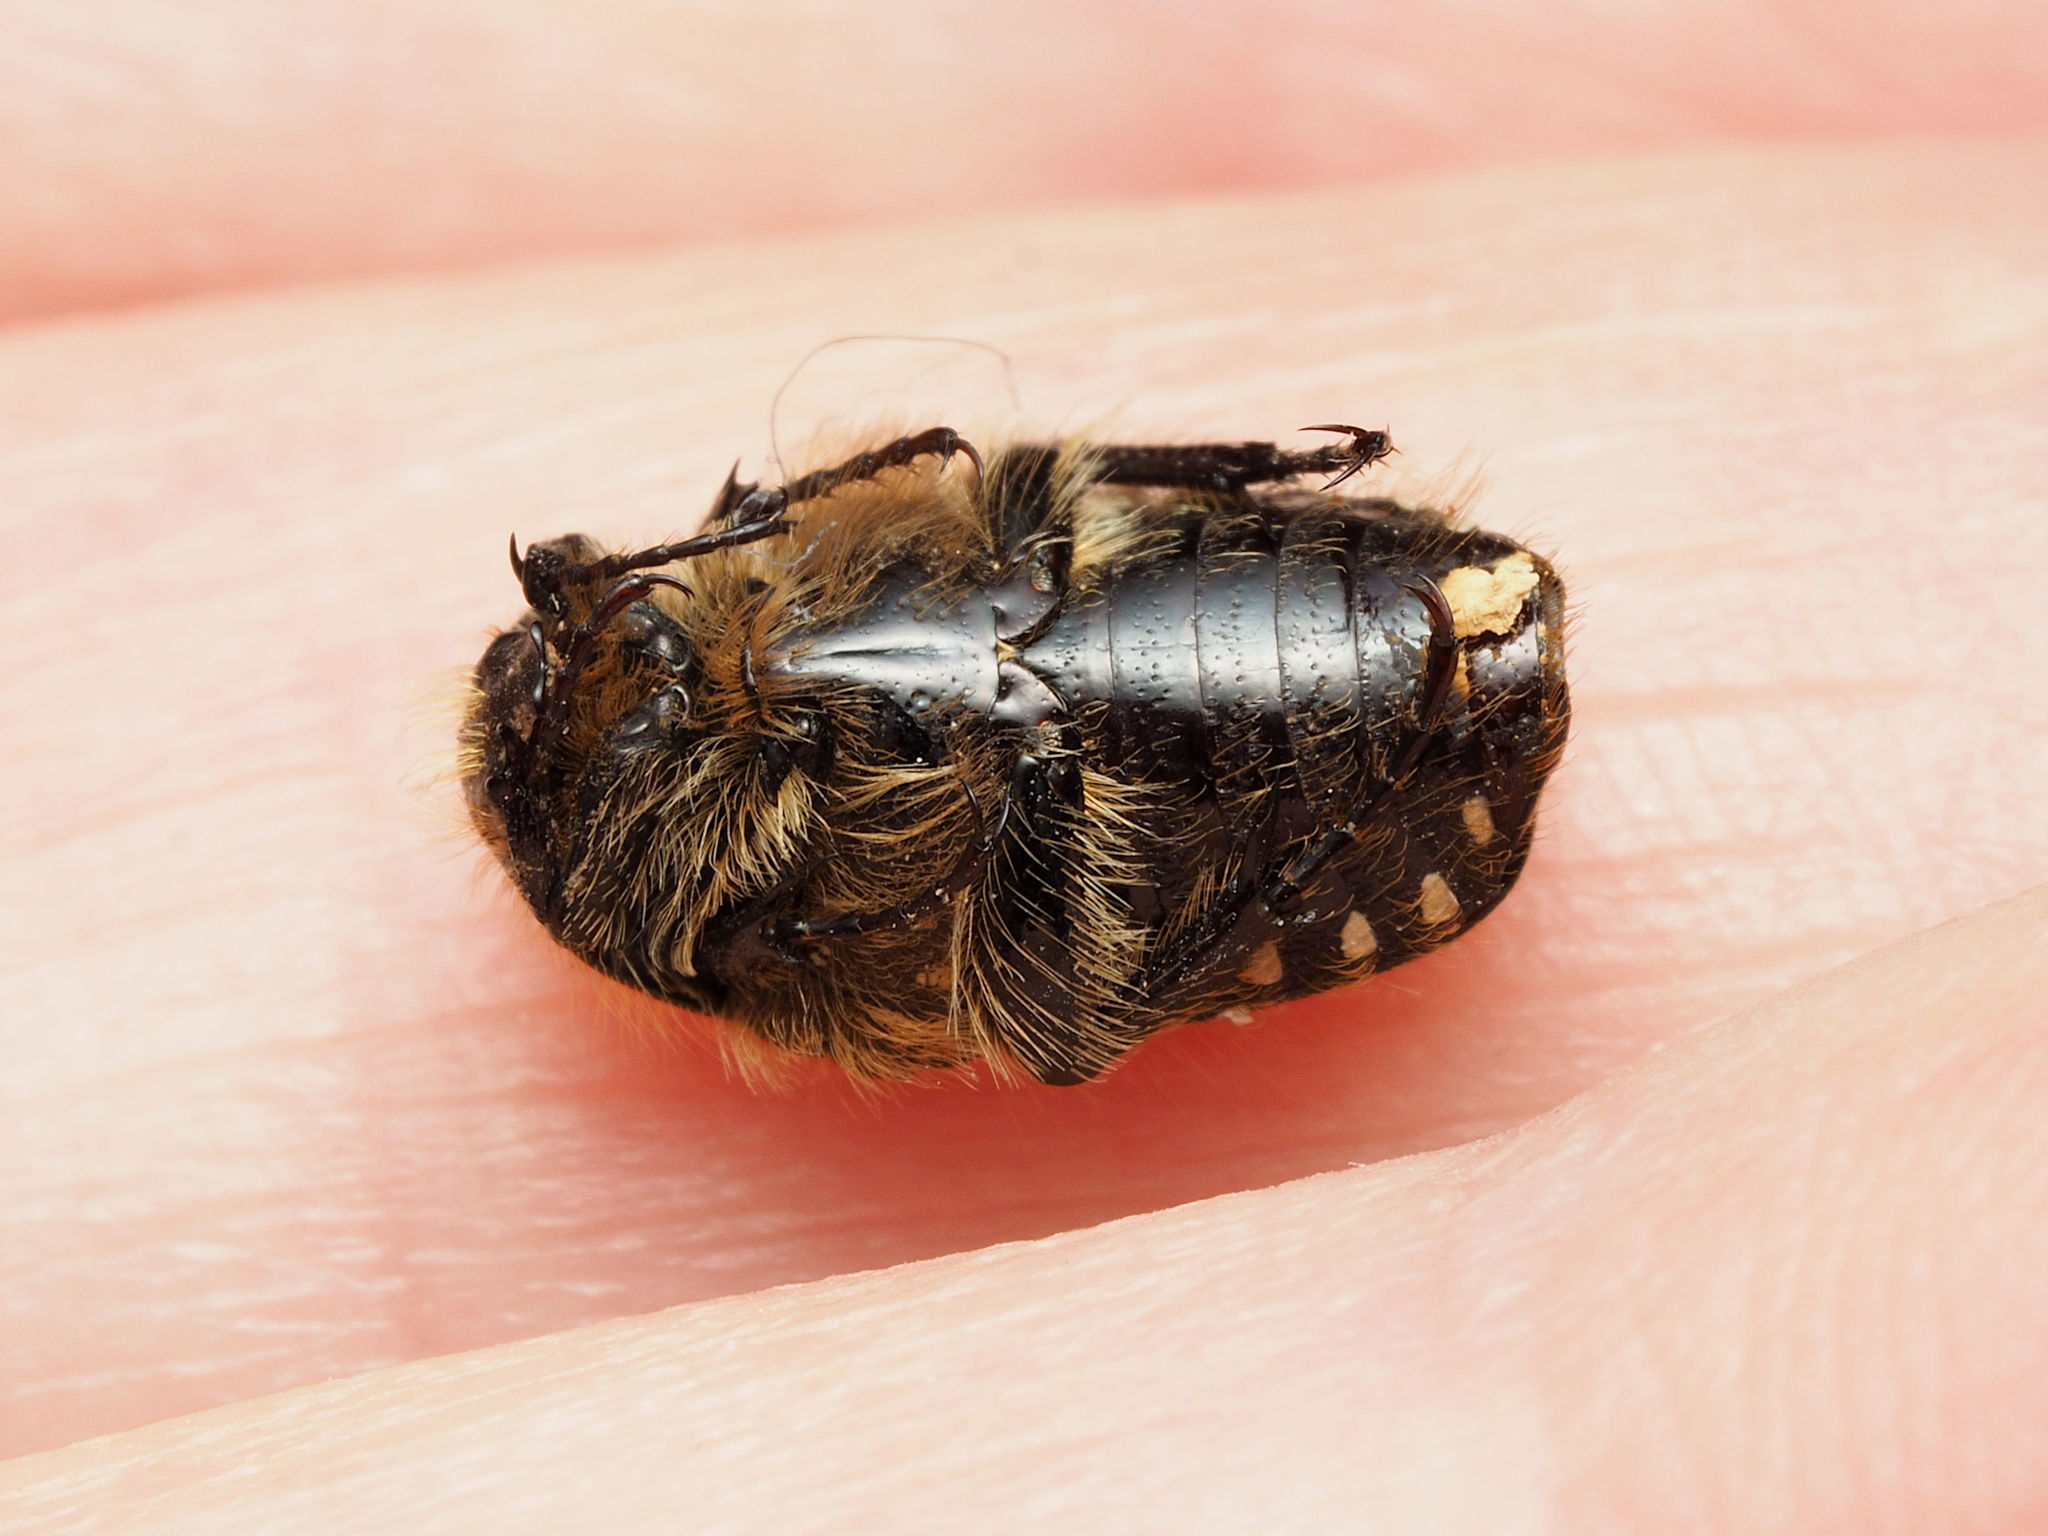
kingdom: Animalia
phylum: Arthropoda
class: Insecta
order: Coleoptera
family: Scarabaeidae
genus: Oxythyrea
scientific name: Oxythyrea funesta
